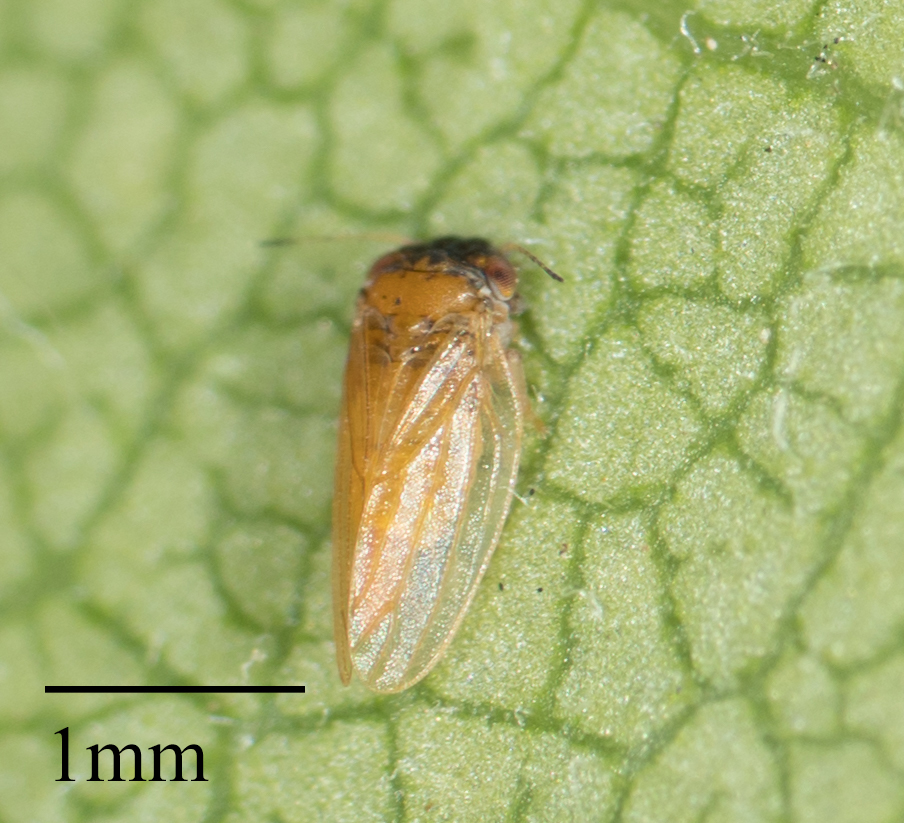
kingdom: Animalia
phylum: Arthropoda
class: Insecta
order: Hemiptera
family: Aphalaridae
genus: Ctenarytaina
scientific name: Ctenarytaina longicauda
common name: Tristania psyllid
